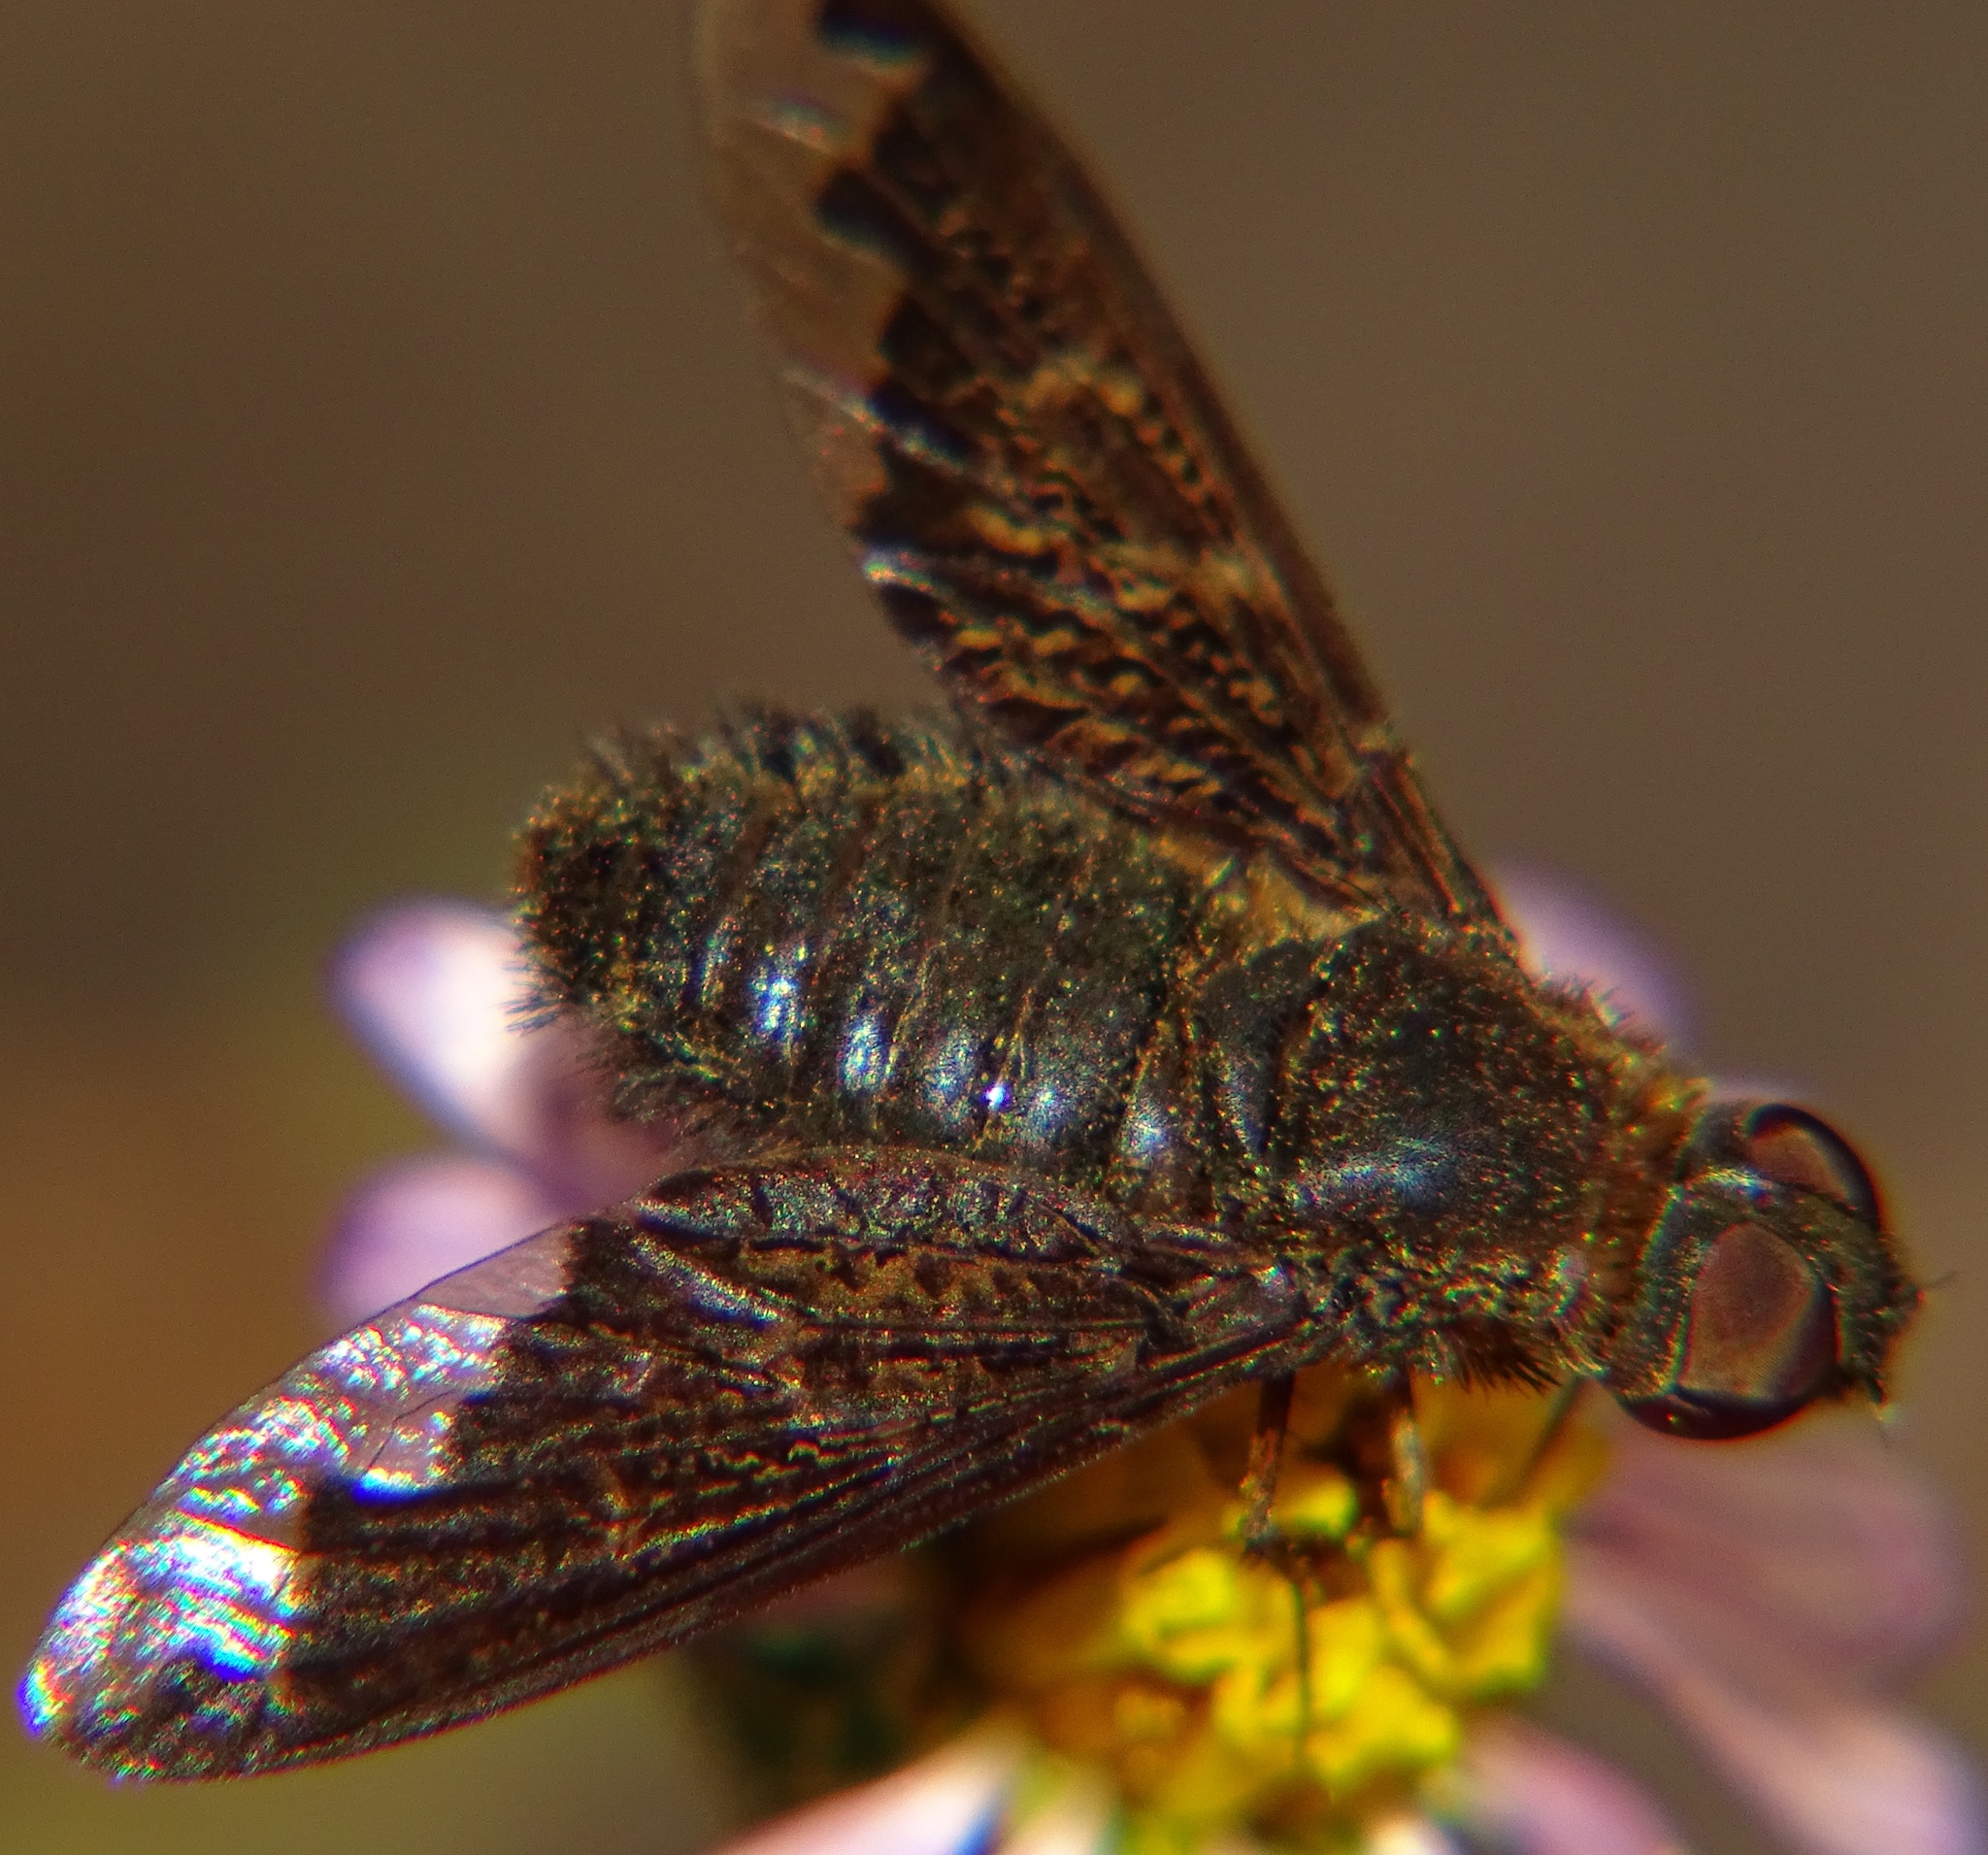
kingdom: Animalia
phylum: Arthropoda
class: Insecta
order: Diptera
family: Bombyliidae
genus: Hemipenthes
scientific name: Hemipenthes sinuosus
